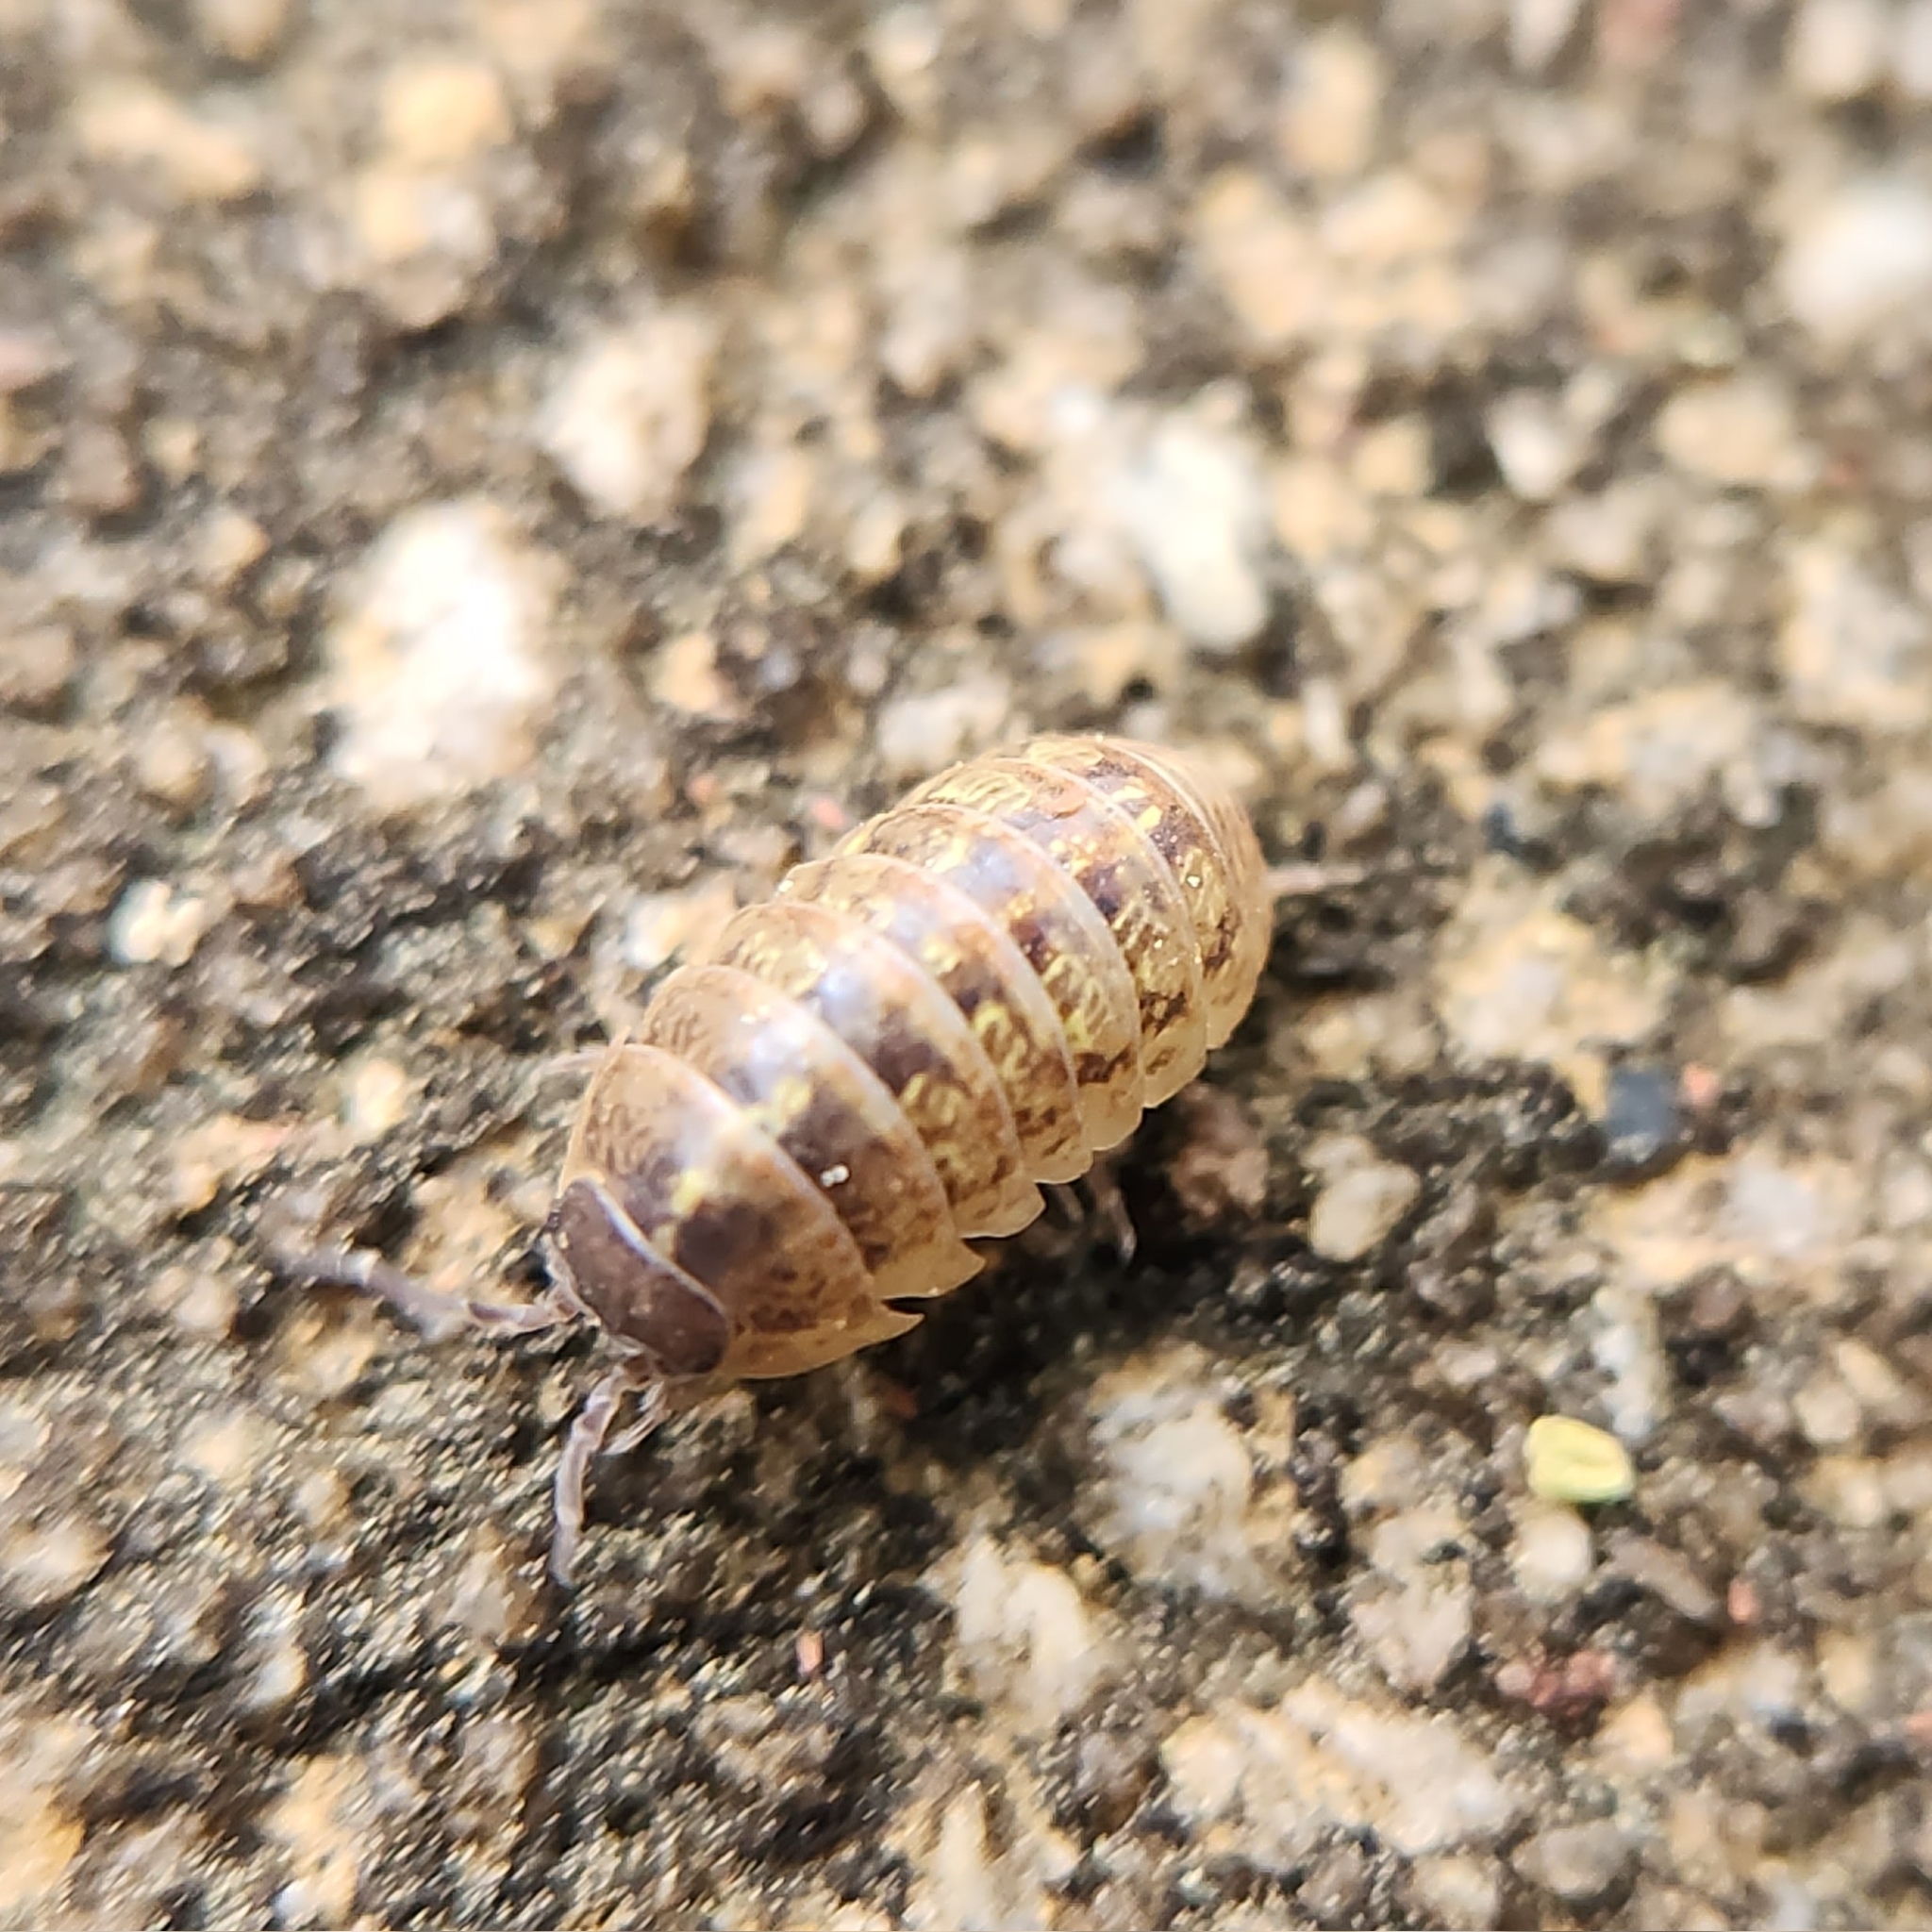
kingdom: Animalia
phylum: Arthropoda
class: Malacostraca
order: Isopoda
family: Armadillidiidae
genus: Armadillidium
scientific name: Armadillidium vulgare
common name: Common pill woodlouse
